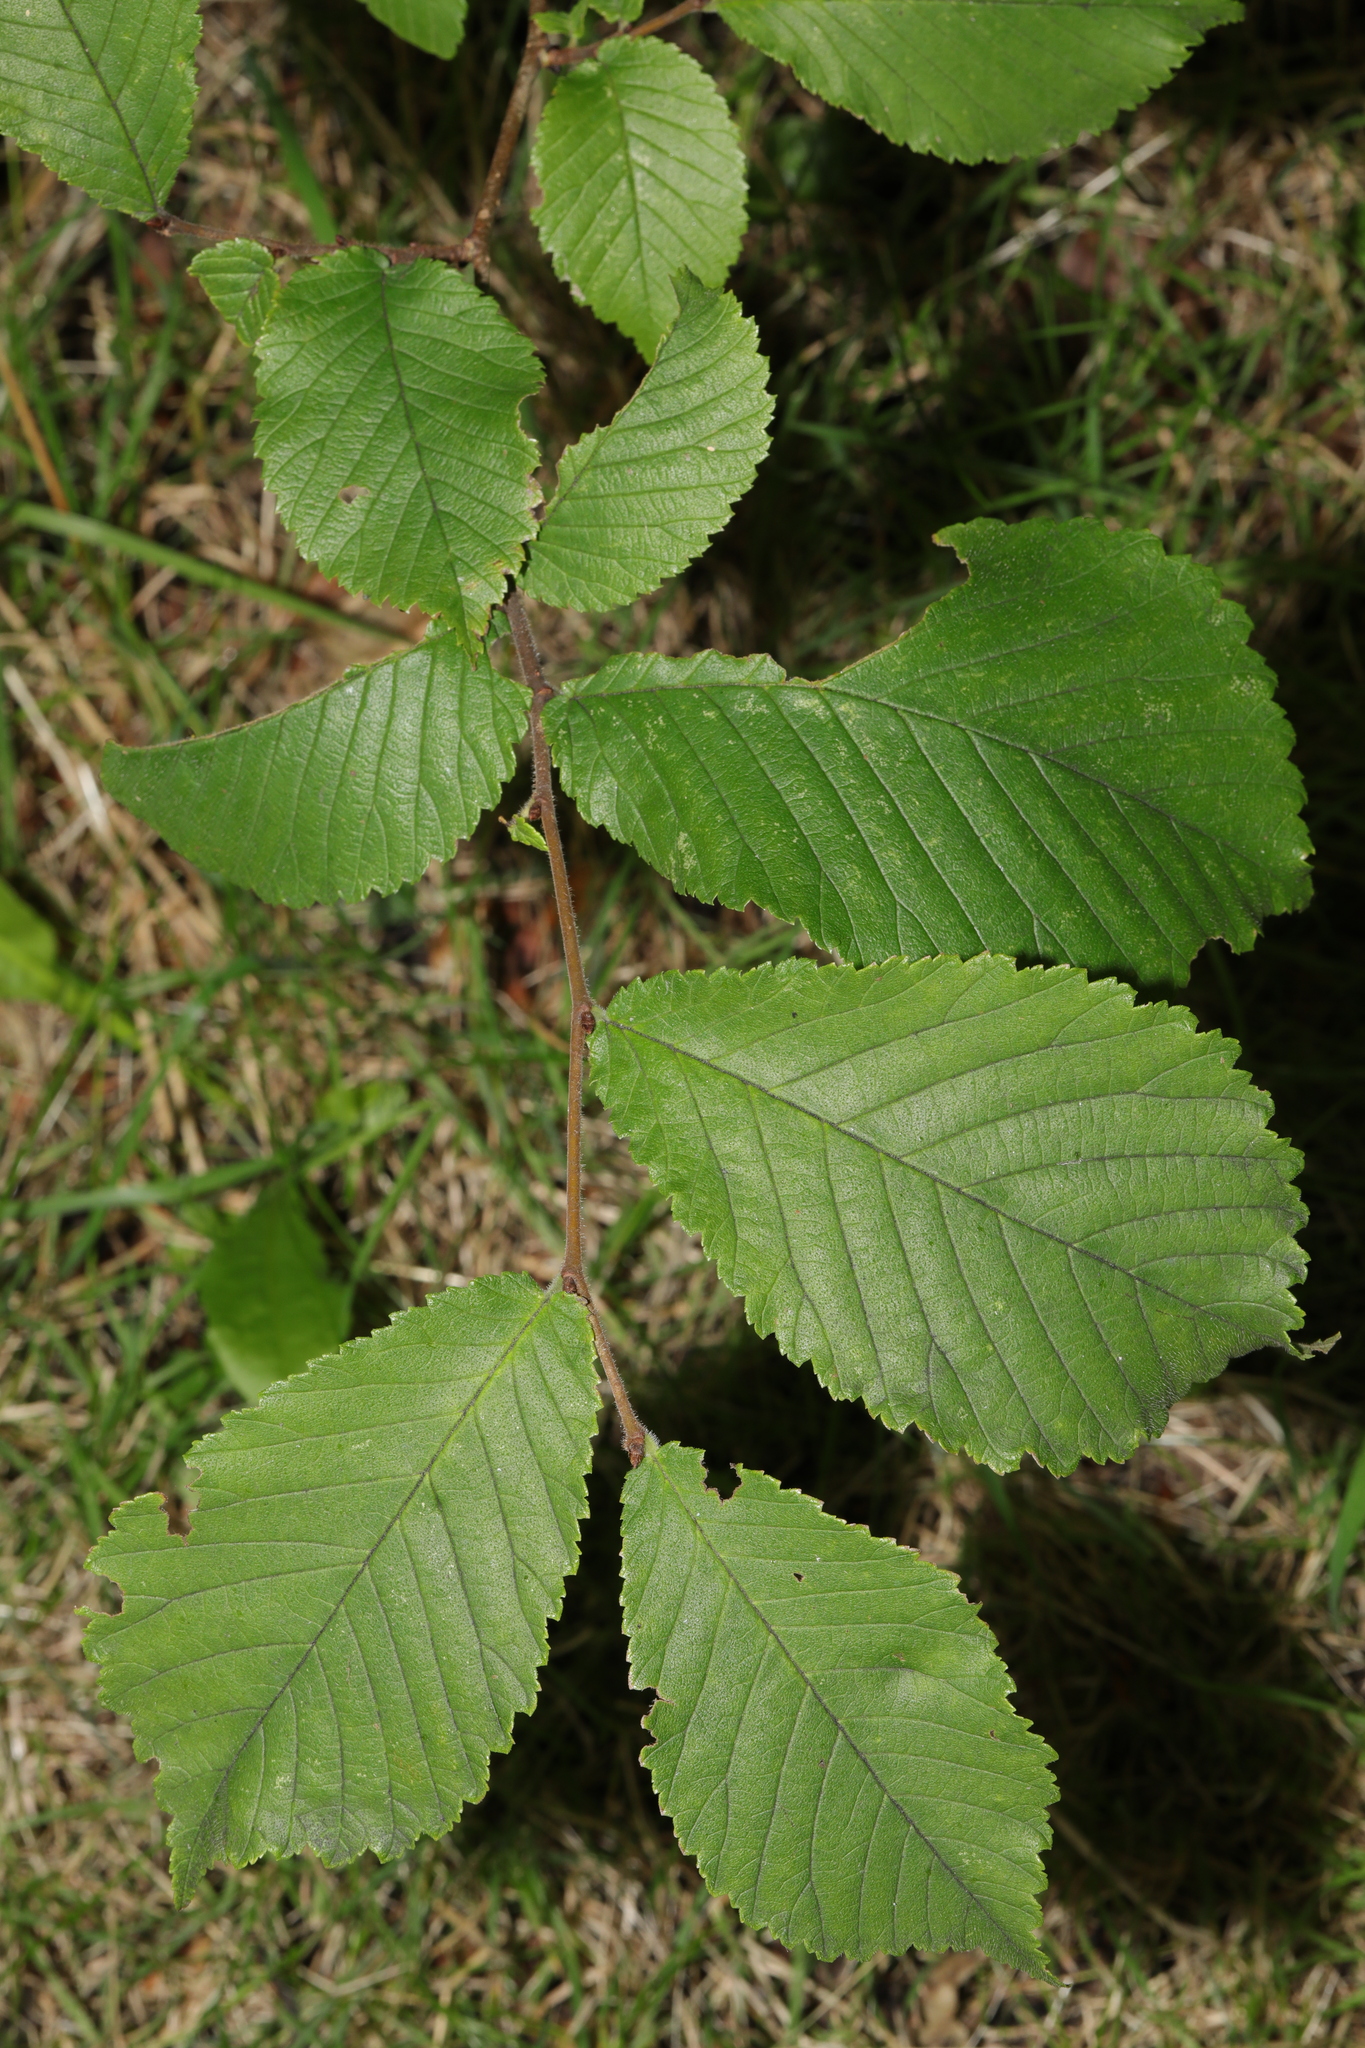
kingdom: Plantae
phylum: Tracheophyta
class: Magnoliopsida
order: Rosales
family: Ulmaceae
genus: Ulmus
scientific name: Ulmus glabra
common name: Wych elm
